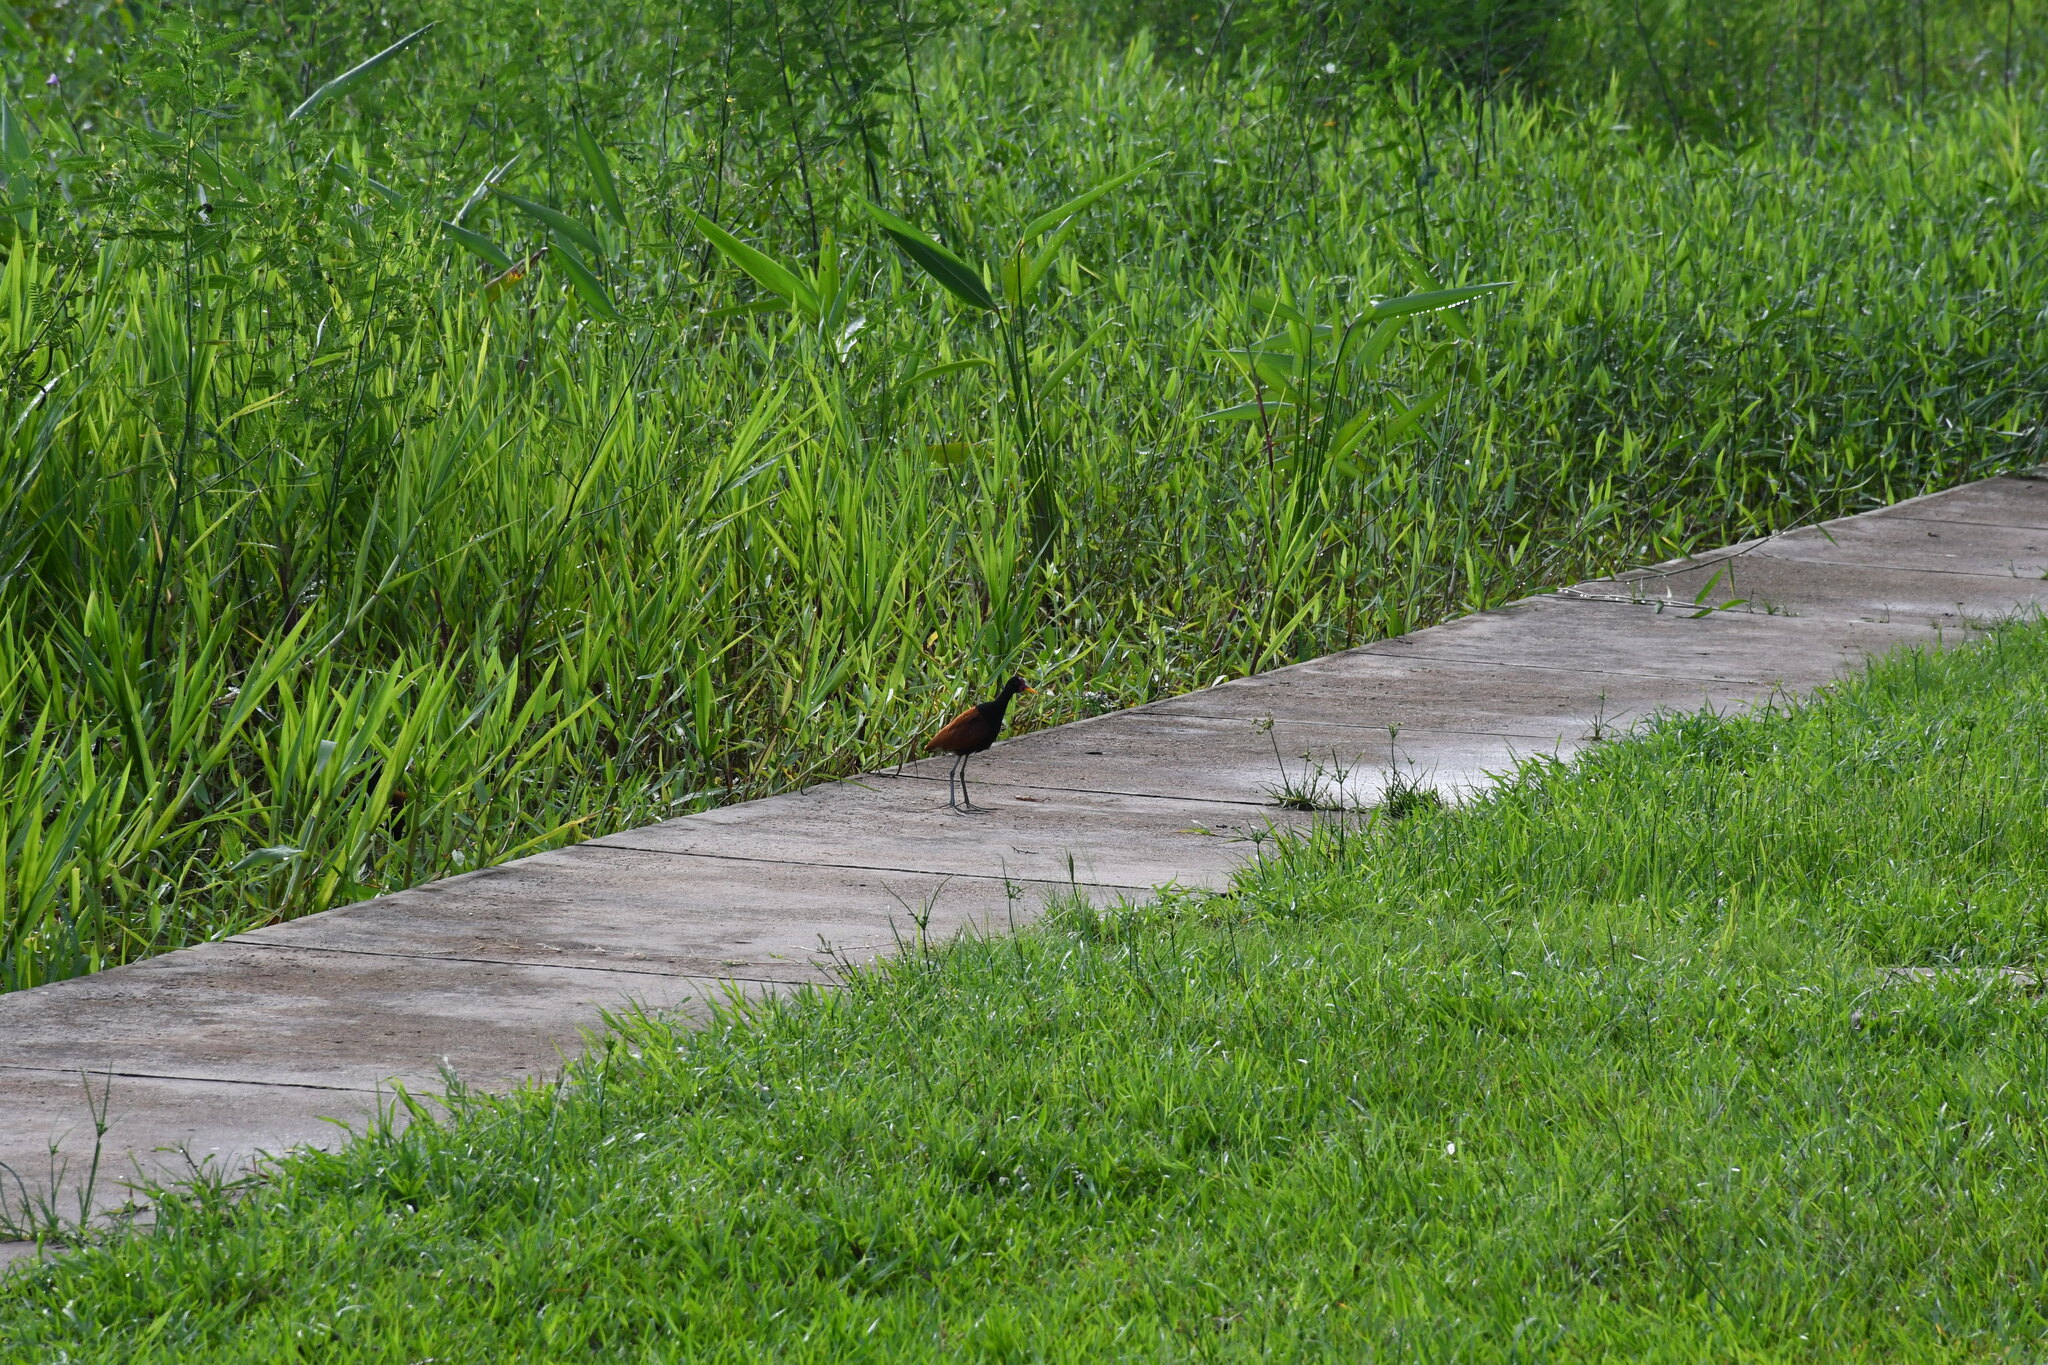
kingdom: Animalia
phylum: Chordata
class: Aves
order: Charadriiformes
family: Jacanidae
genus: Jacana
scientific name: Jacana jacana
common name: Wattled jacana
